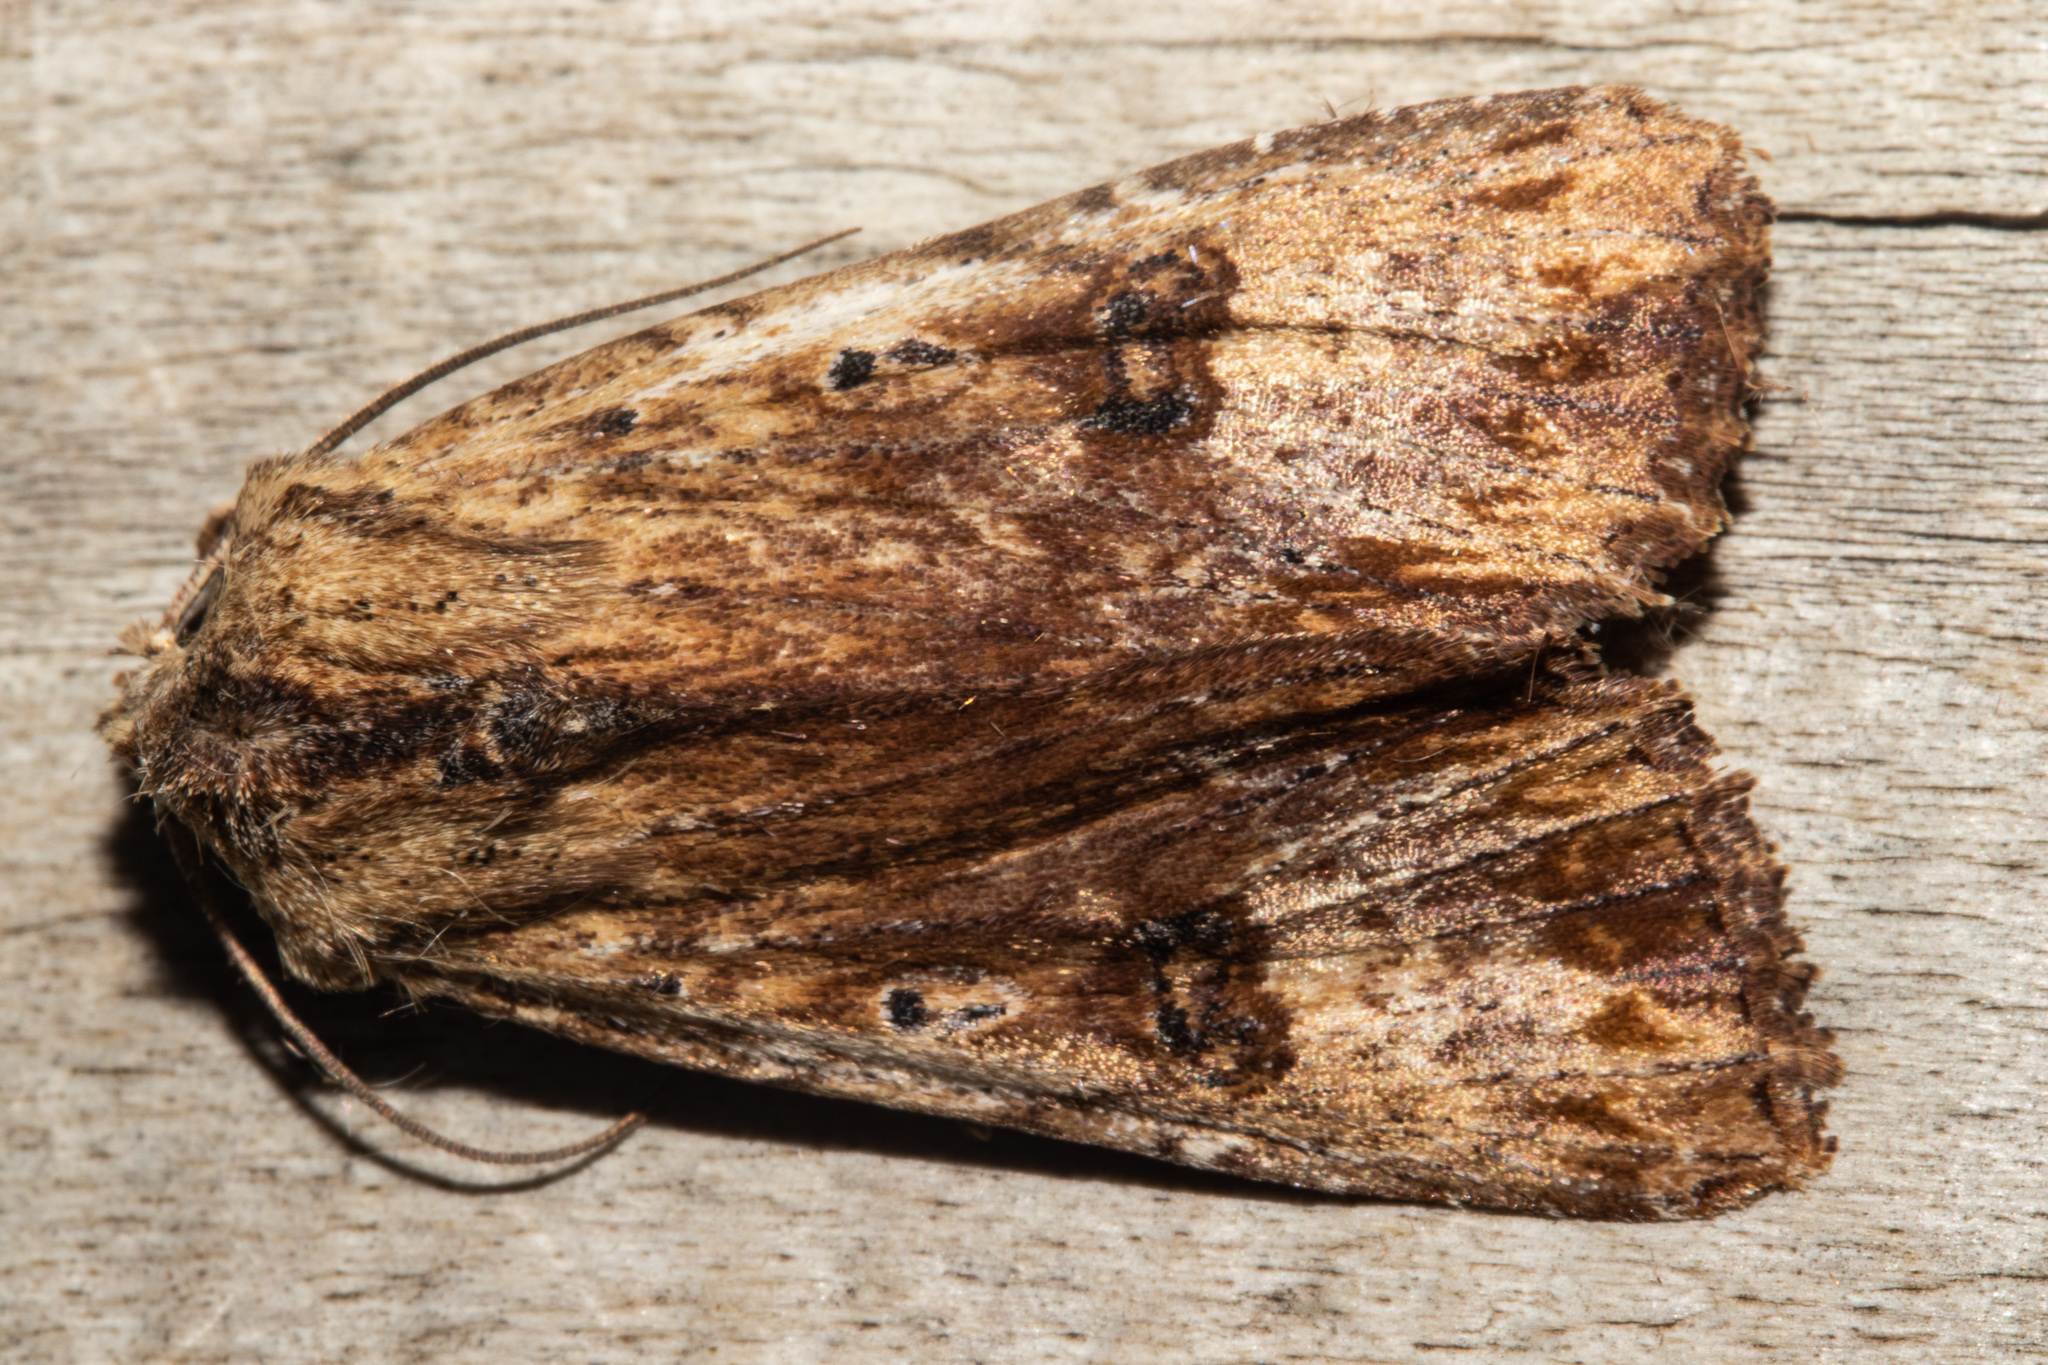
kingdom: Animalia
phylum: Arthropoda
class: Insecta
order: Lepidoptera
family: Noctuidae
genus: Ichneutica
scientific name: Ichneutica
